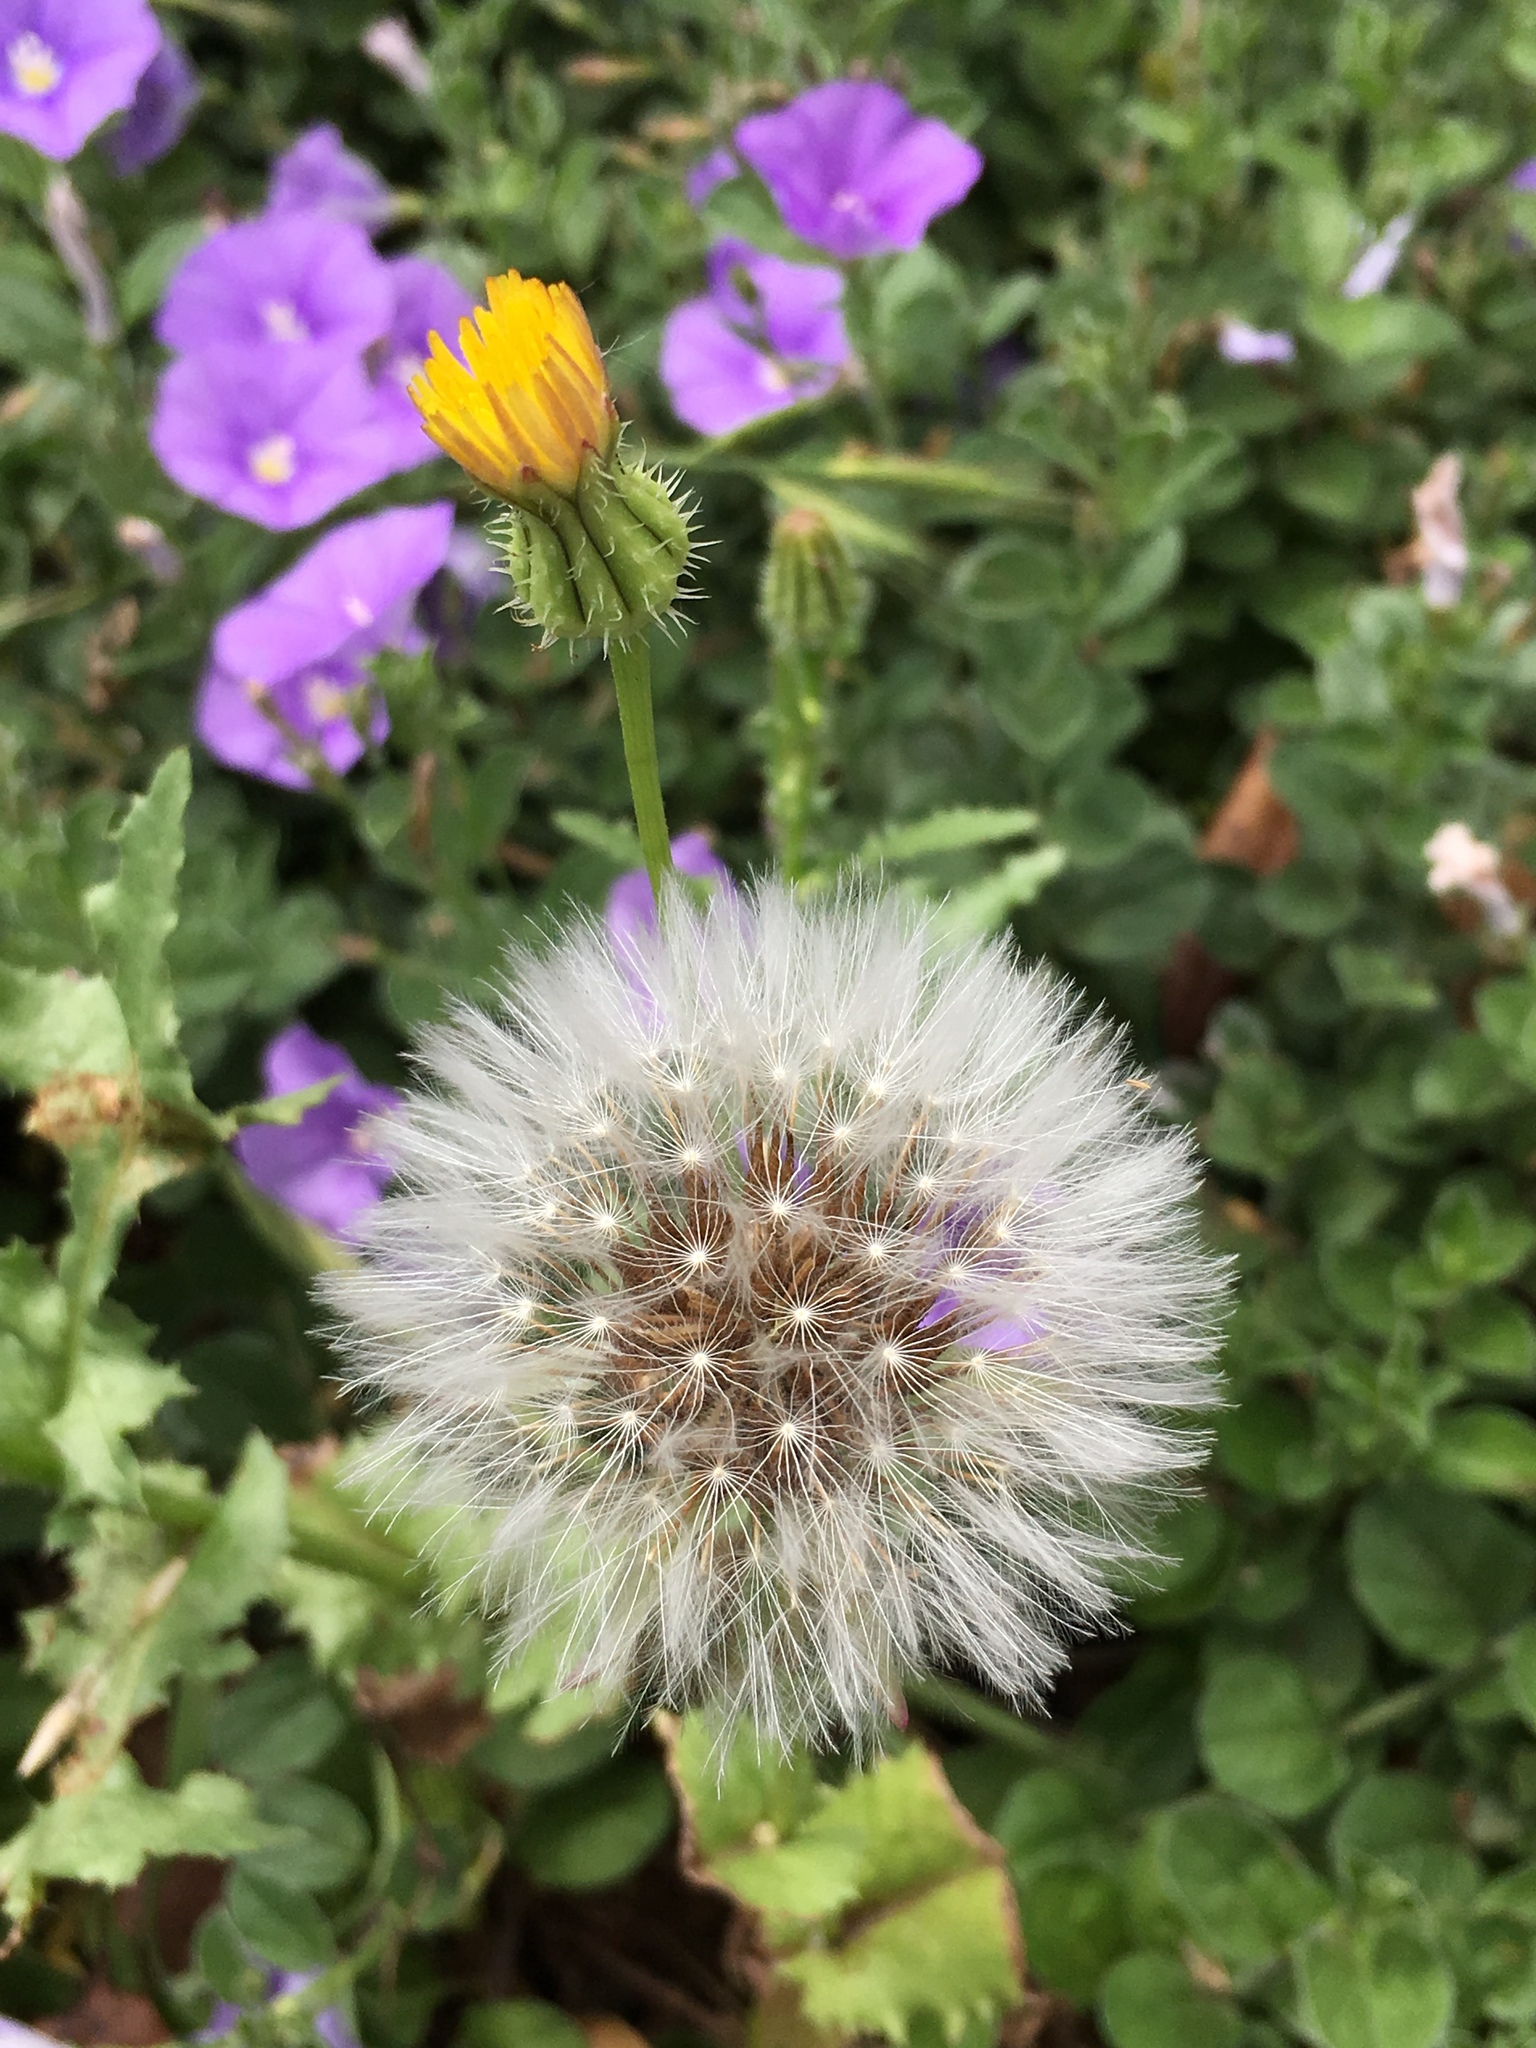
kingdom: Plantae
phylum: Tracheophyta
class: Magnoliopsida
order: Asterales
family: Asteraceae
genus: Urospermum
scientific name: Urospermum picroides
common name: False hawkbit
